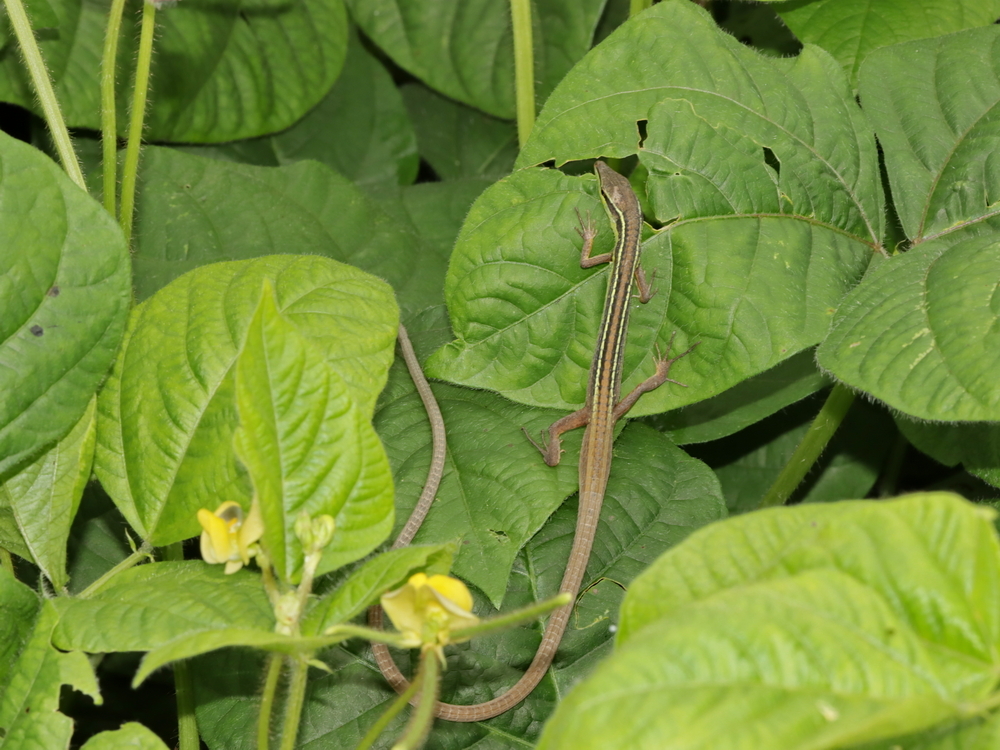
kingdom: Animalia
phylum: Chordata
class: Squamata
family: Lacertidae
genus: Takydromus
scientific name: Takydromus sexlineatus
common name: Asian grass lizard
